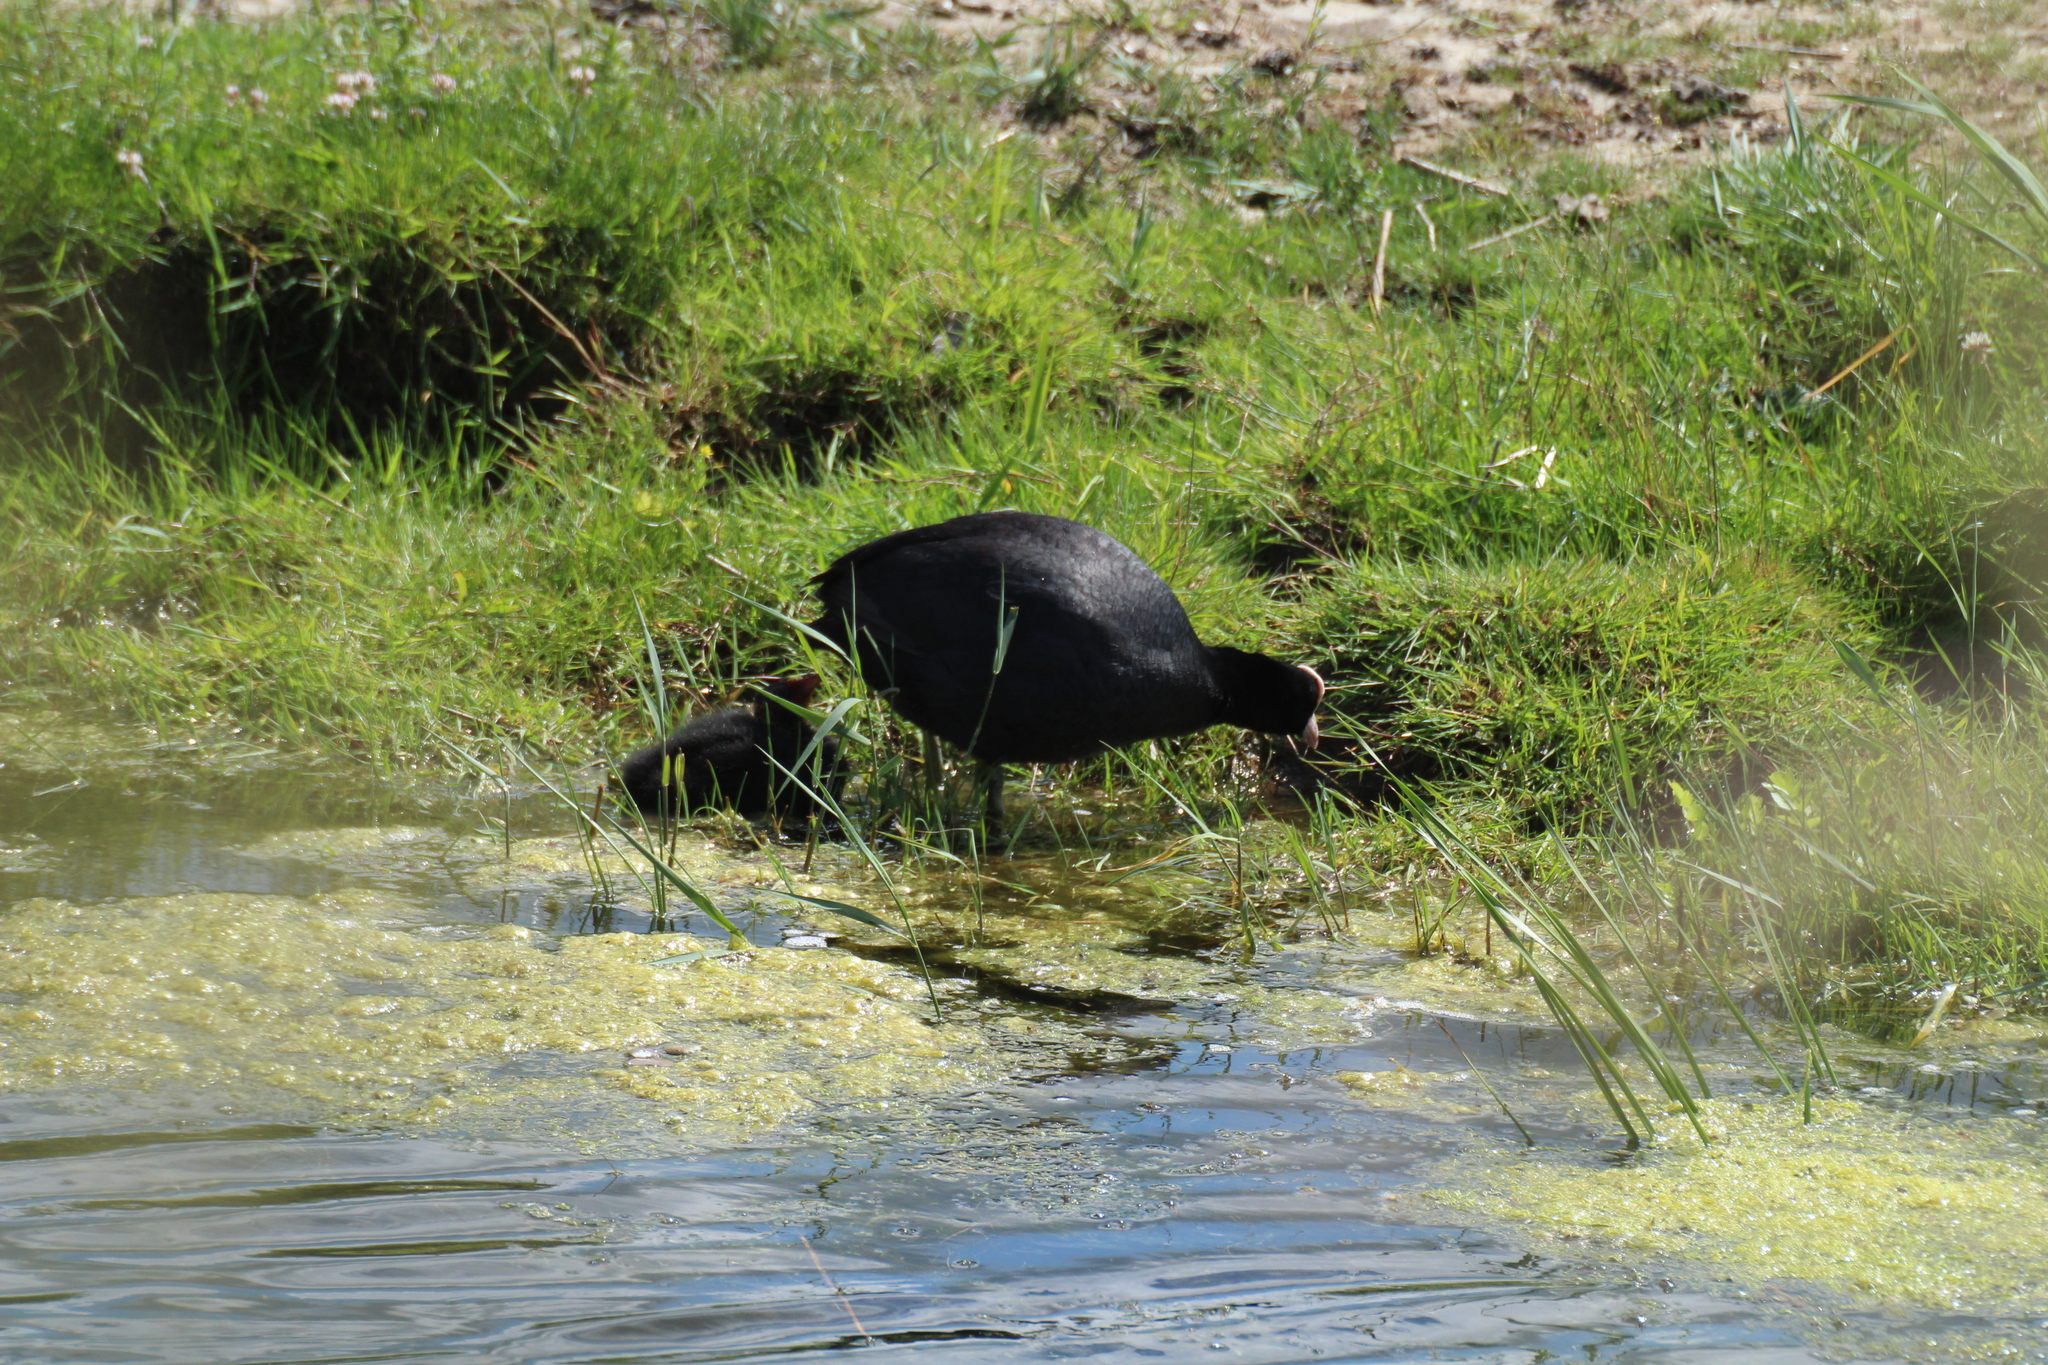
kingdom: Animalia
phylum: Chordata
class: Aves
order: Gruiformes
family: Rallidae
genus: Fulica
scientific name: Fulica atra
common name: Eurasian coot
